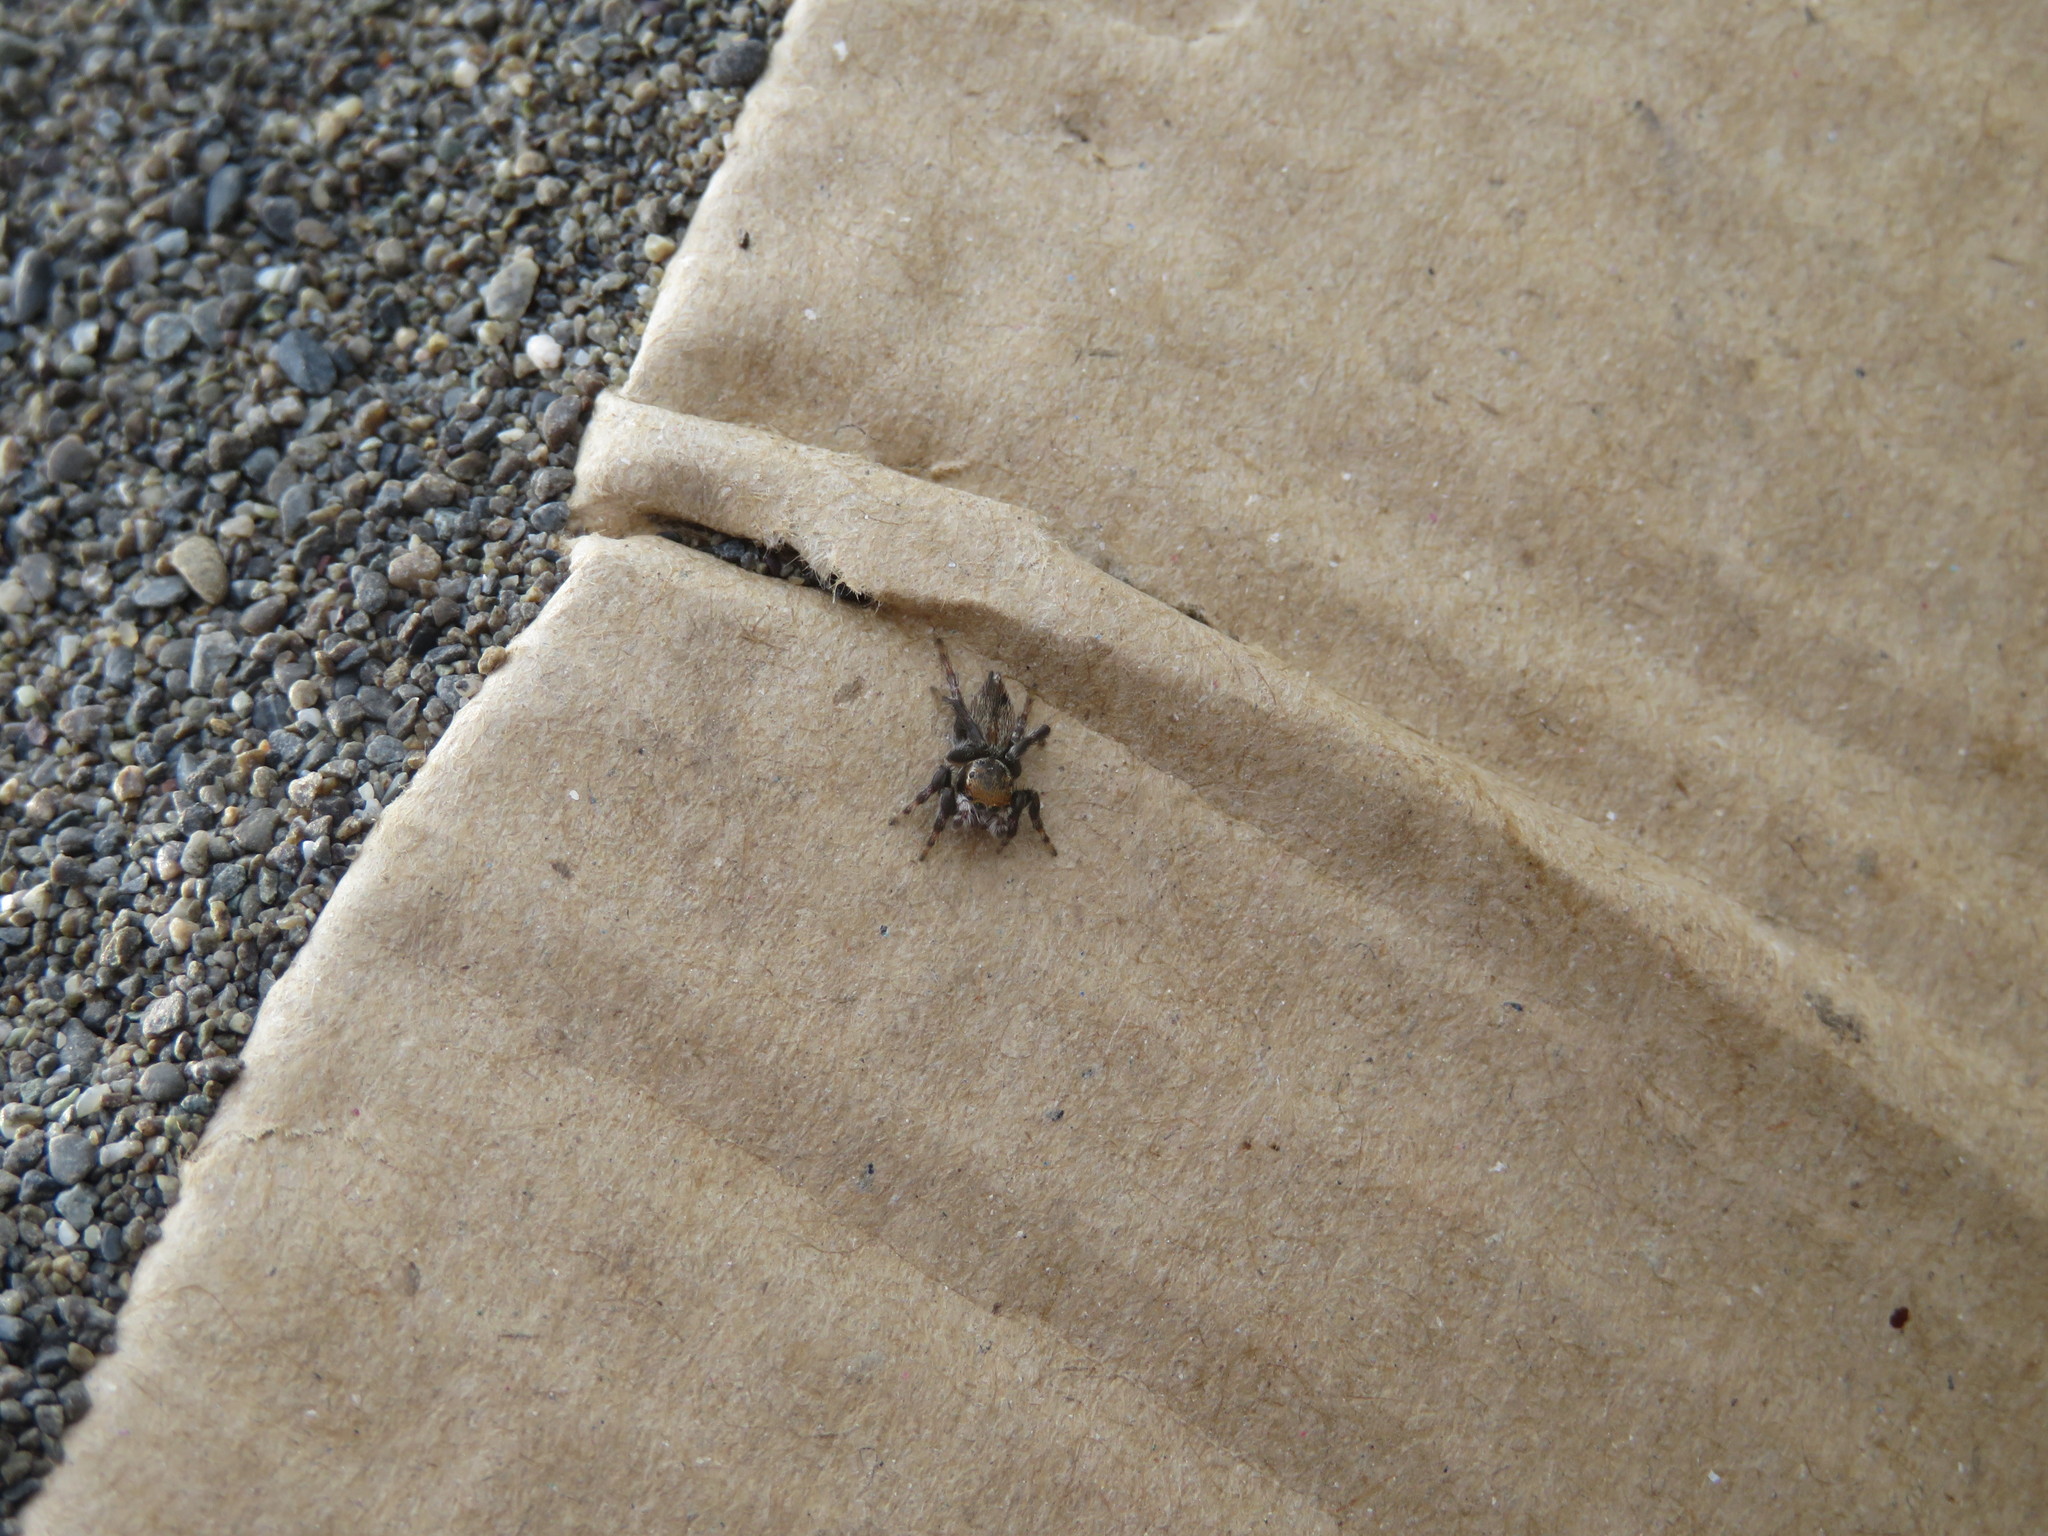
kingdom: Animalia
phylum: Arthropoda
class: Arachnida
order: Araneae
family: Salticidae
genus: Maratus
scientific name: Maratus griseus
